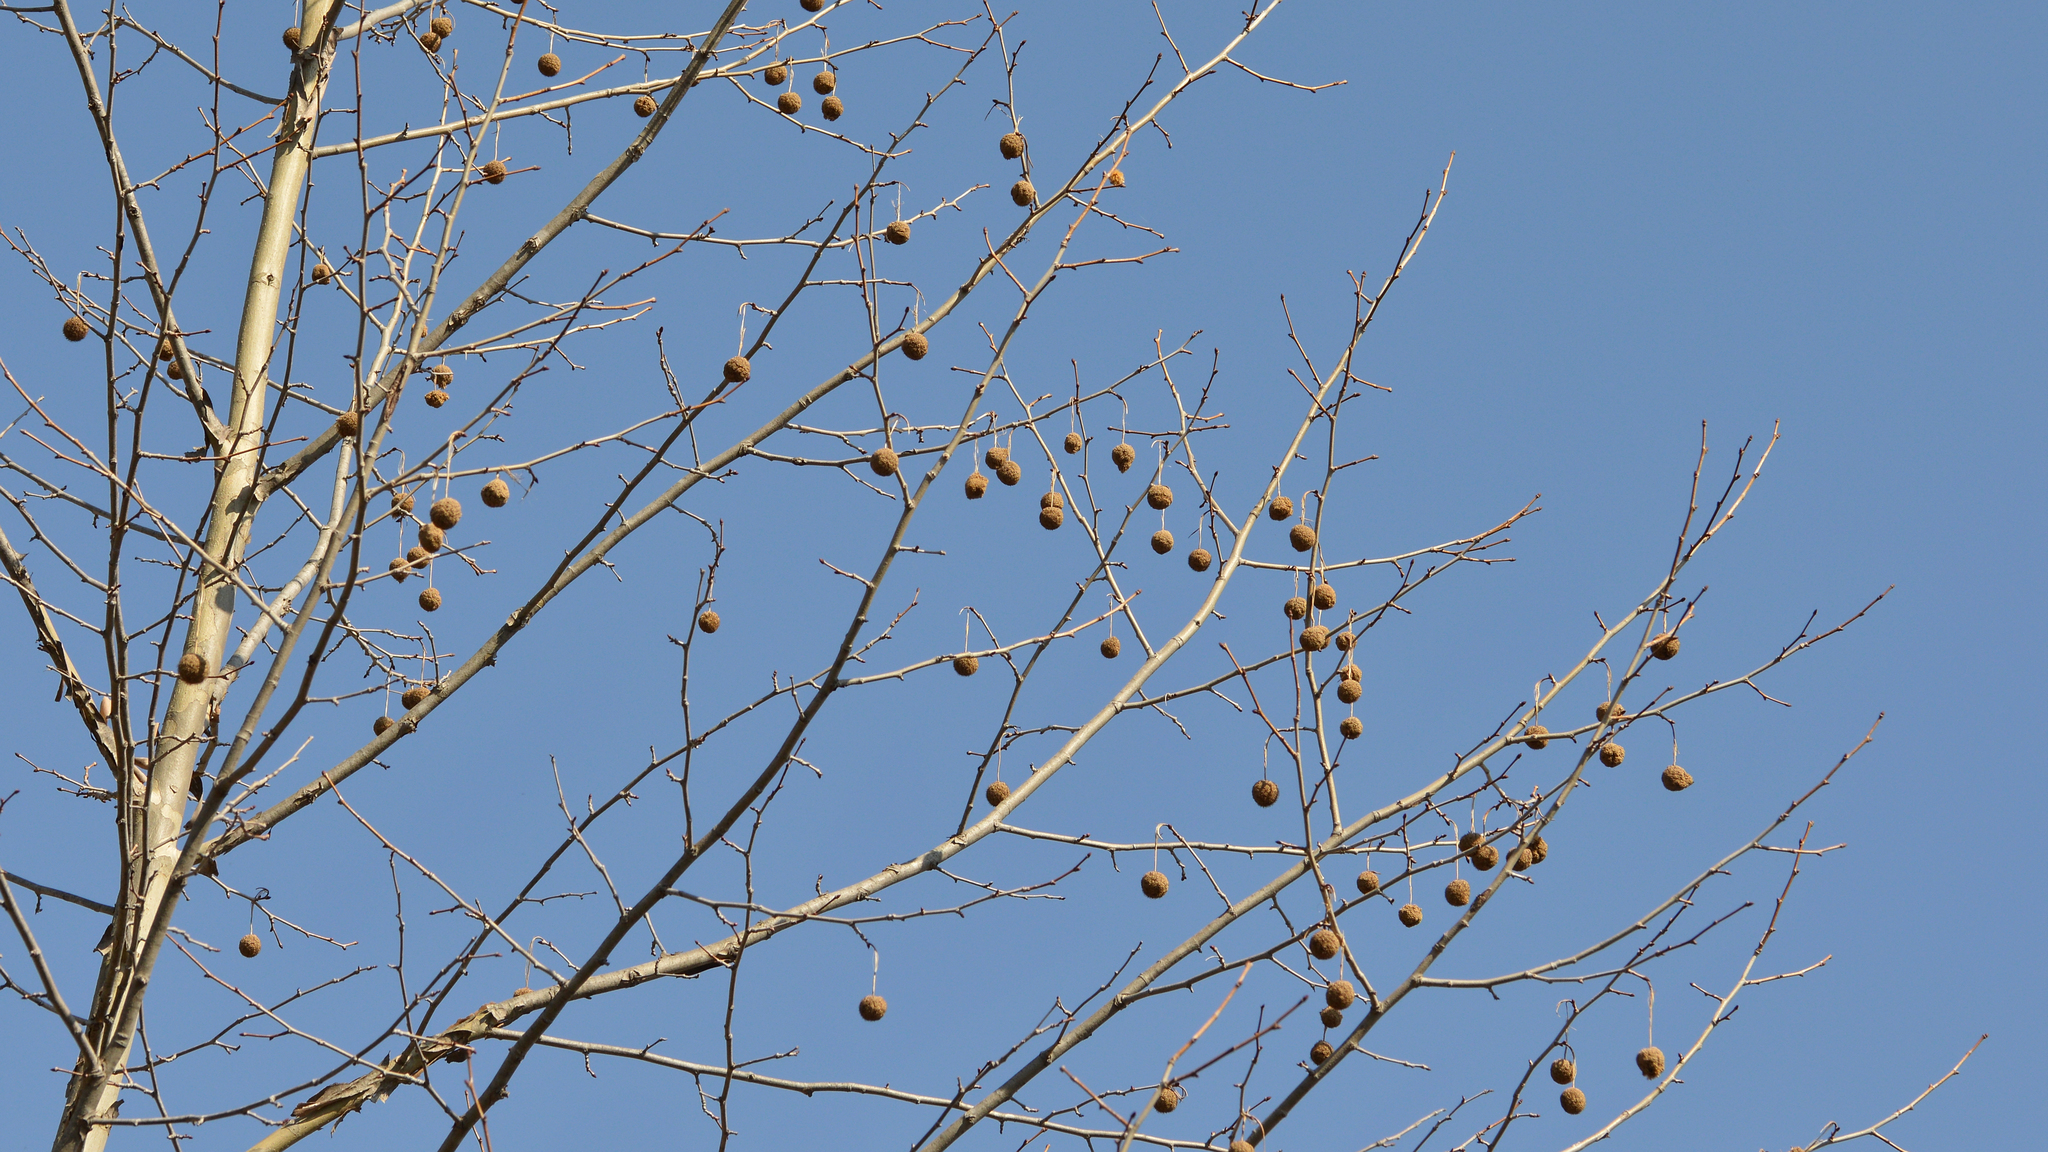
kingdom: Plantae
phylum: Tracheophyta
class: Magnoliopsida
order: Proteales
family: Platanaceae
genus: Platanus
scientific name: Platanus occidentalis
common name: American sycamore
